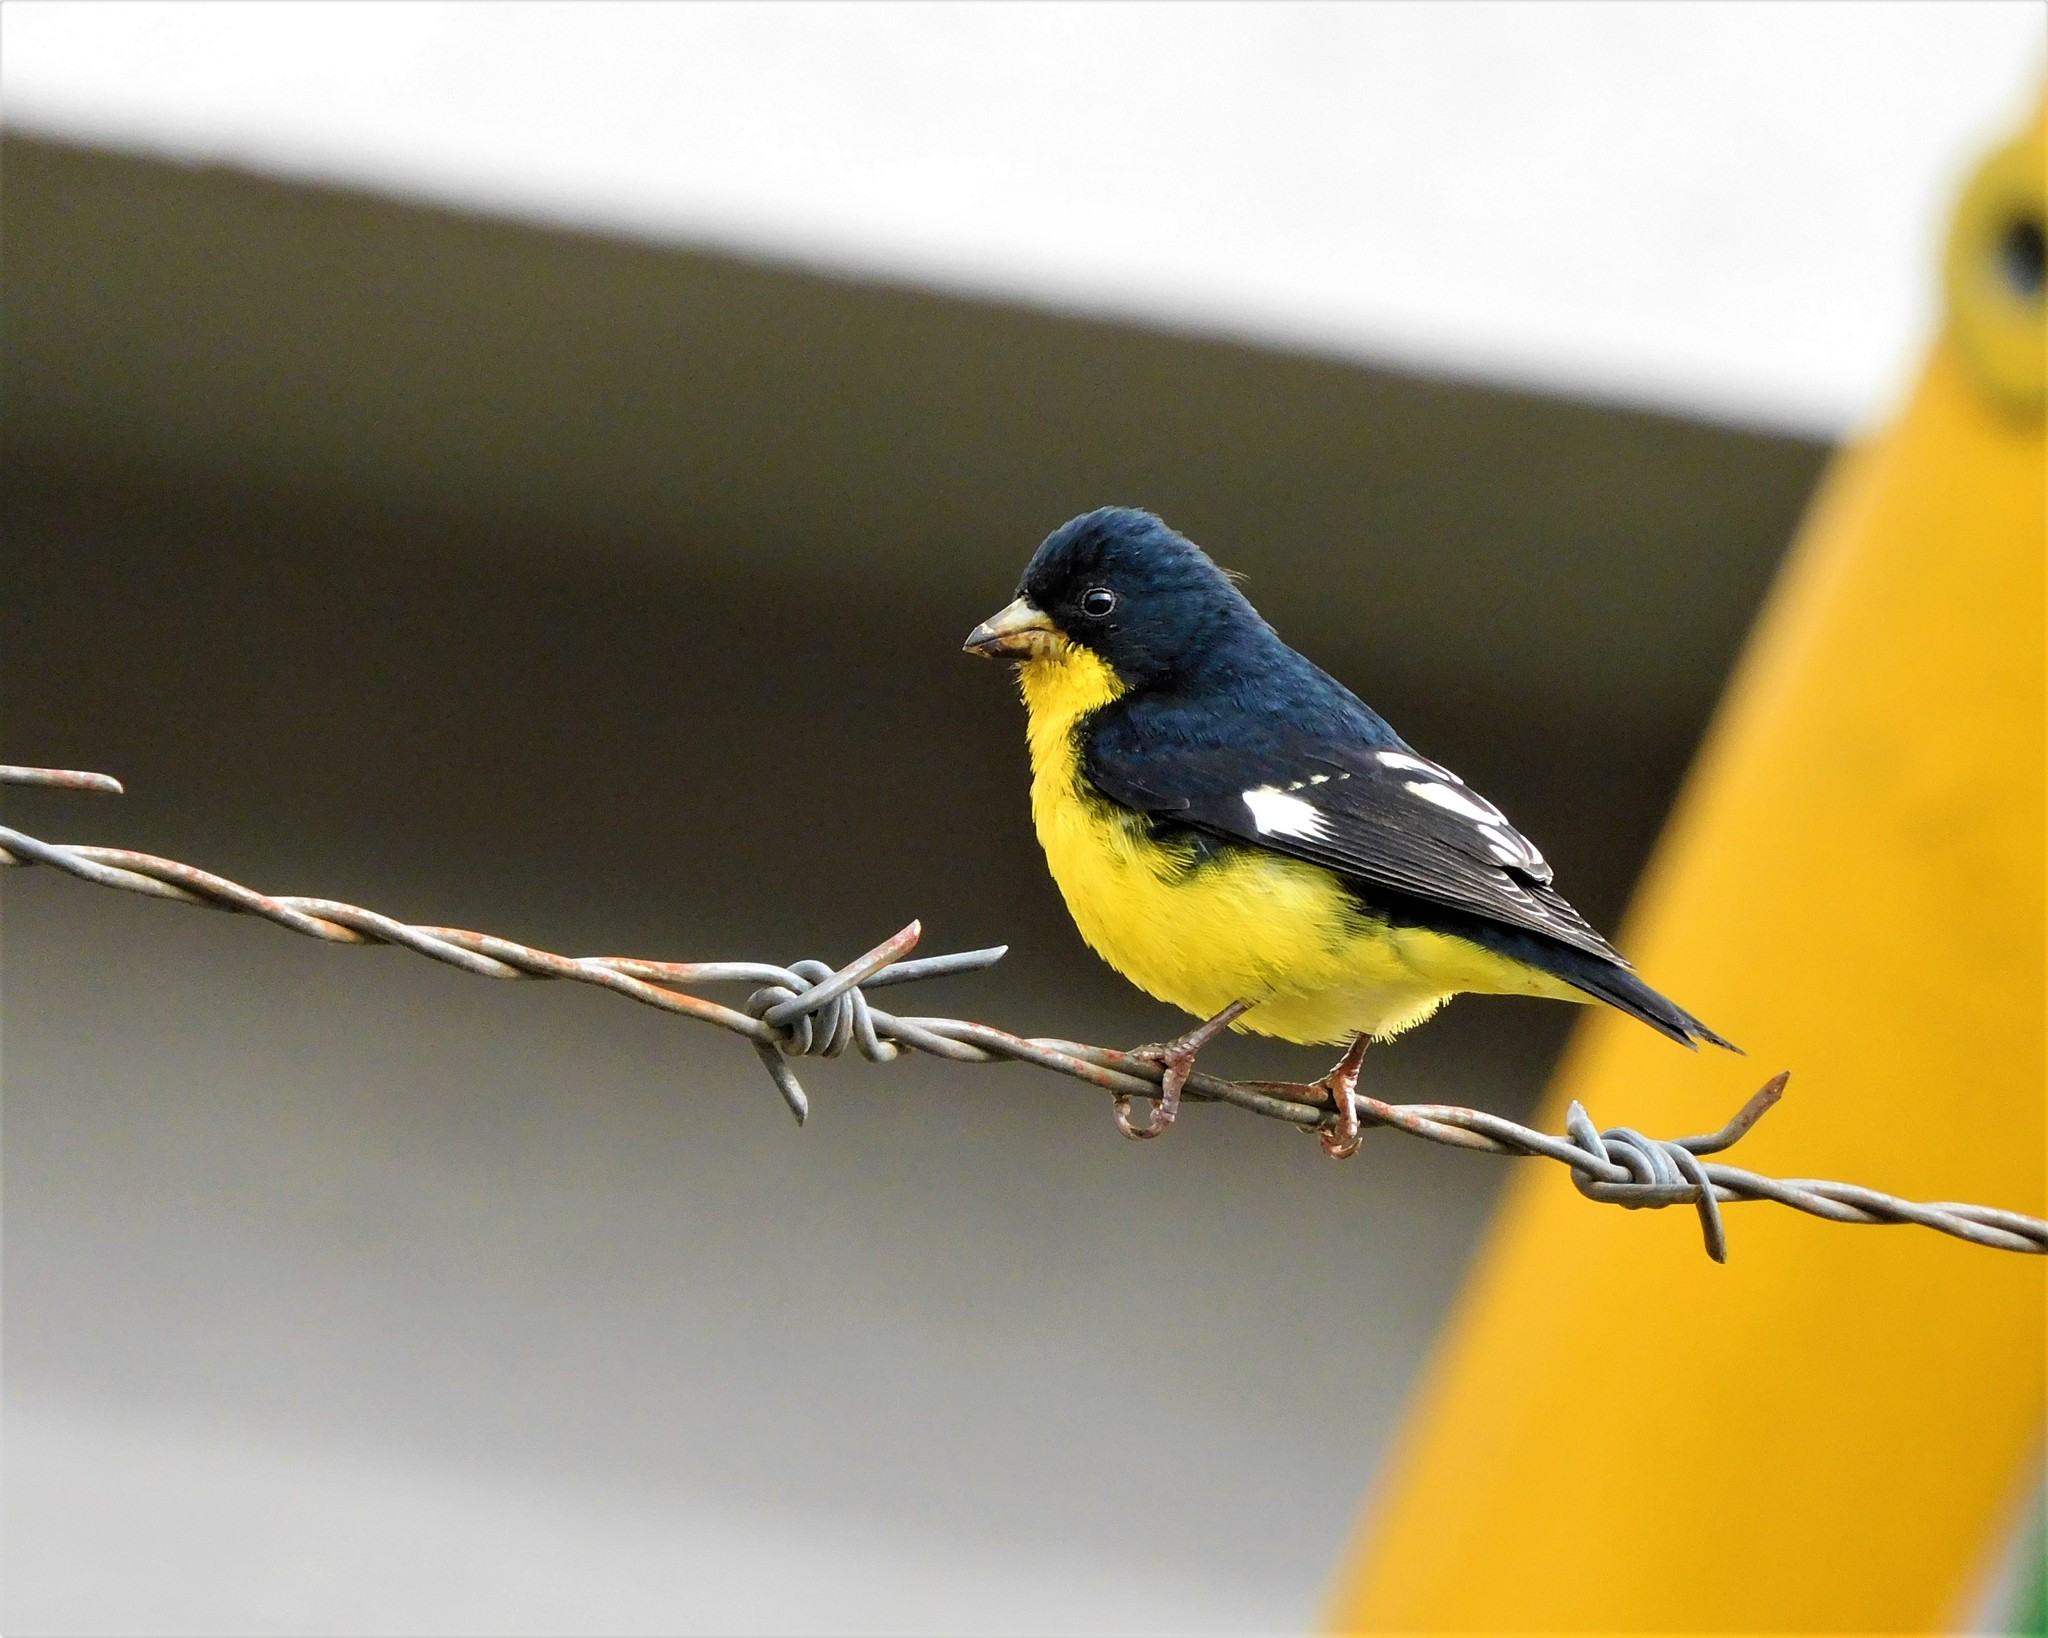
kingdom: Animalia
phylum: Chordata
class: Aves
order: Passeriformes
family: Fringillidae
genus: Spinus
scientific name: Spinus psaltria
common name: Lesser goldfinch
